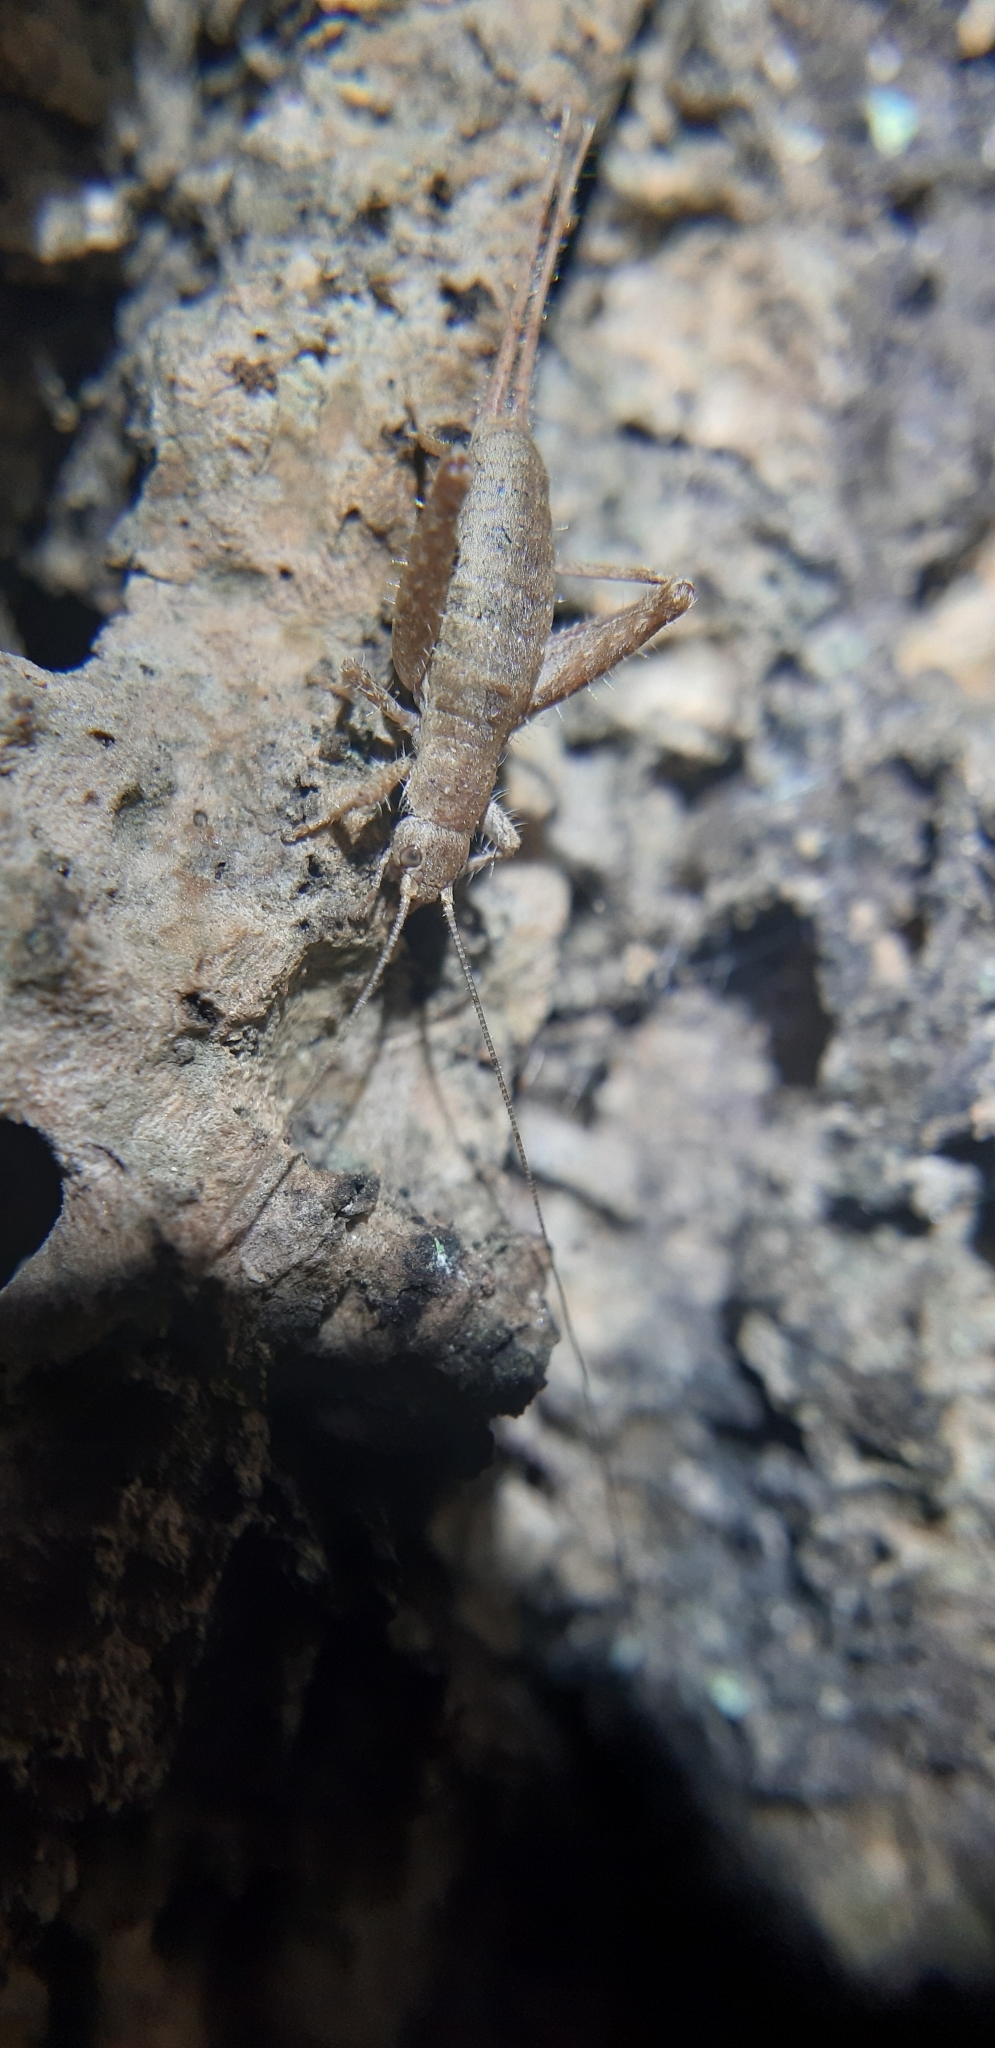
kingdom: Animalia
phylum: Arthropoda
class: Insecta
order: Orthoptera
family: Mogoplistidae
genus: Arachnocephalus
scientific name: Arachnocephalus vestitus
